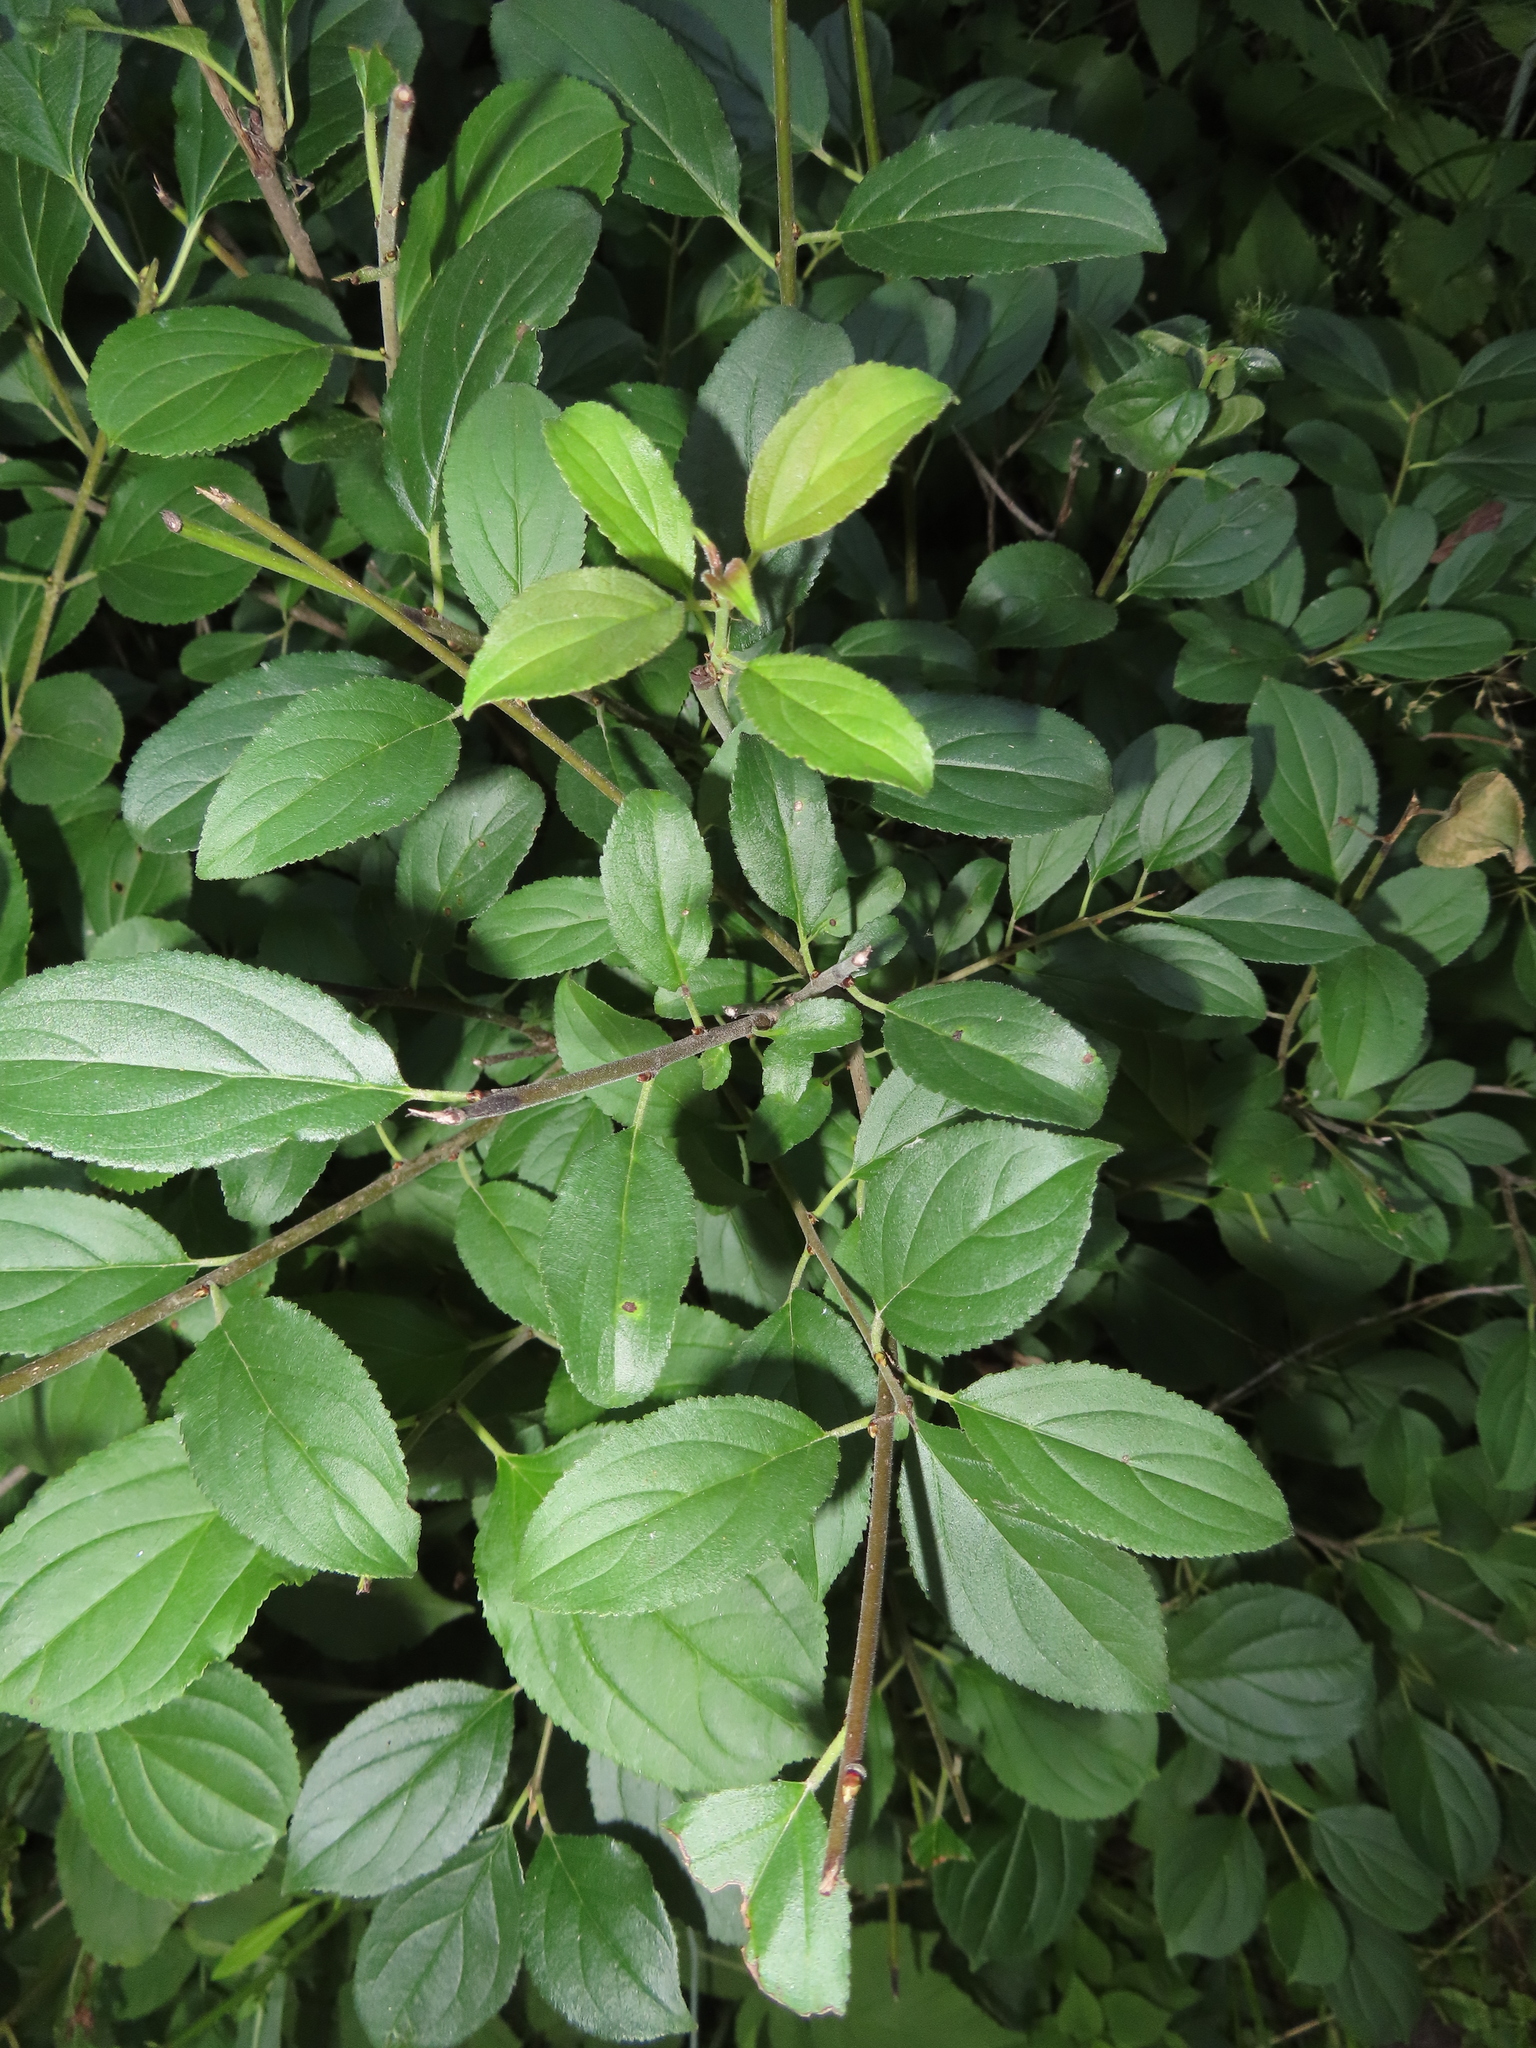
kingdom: Plantae
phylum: Tracheophyta
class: Magnoliopsida
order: Rosales
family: Rhamnaceae
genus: Rhamnus
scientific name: Rhamnus cathartica
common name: Common buckthorn
